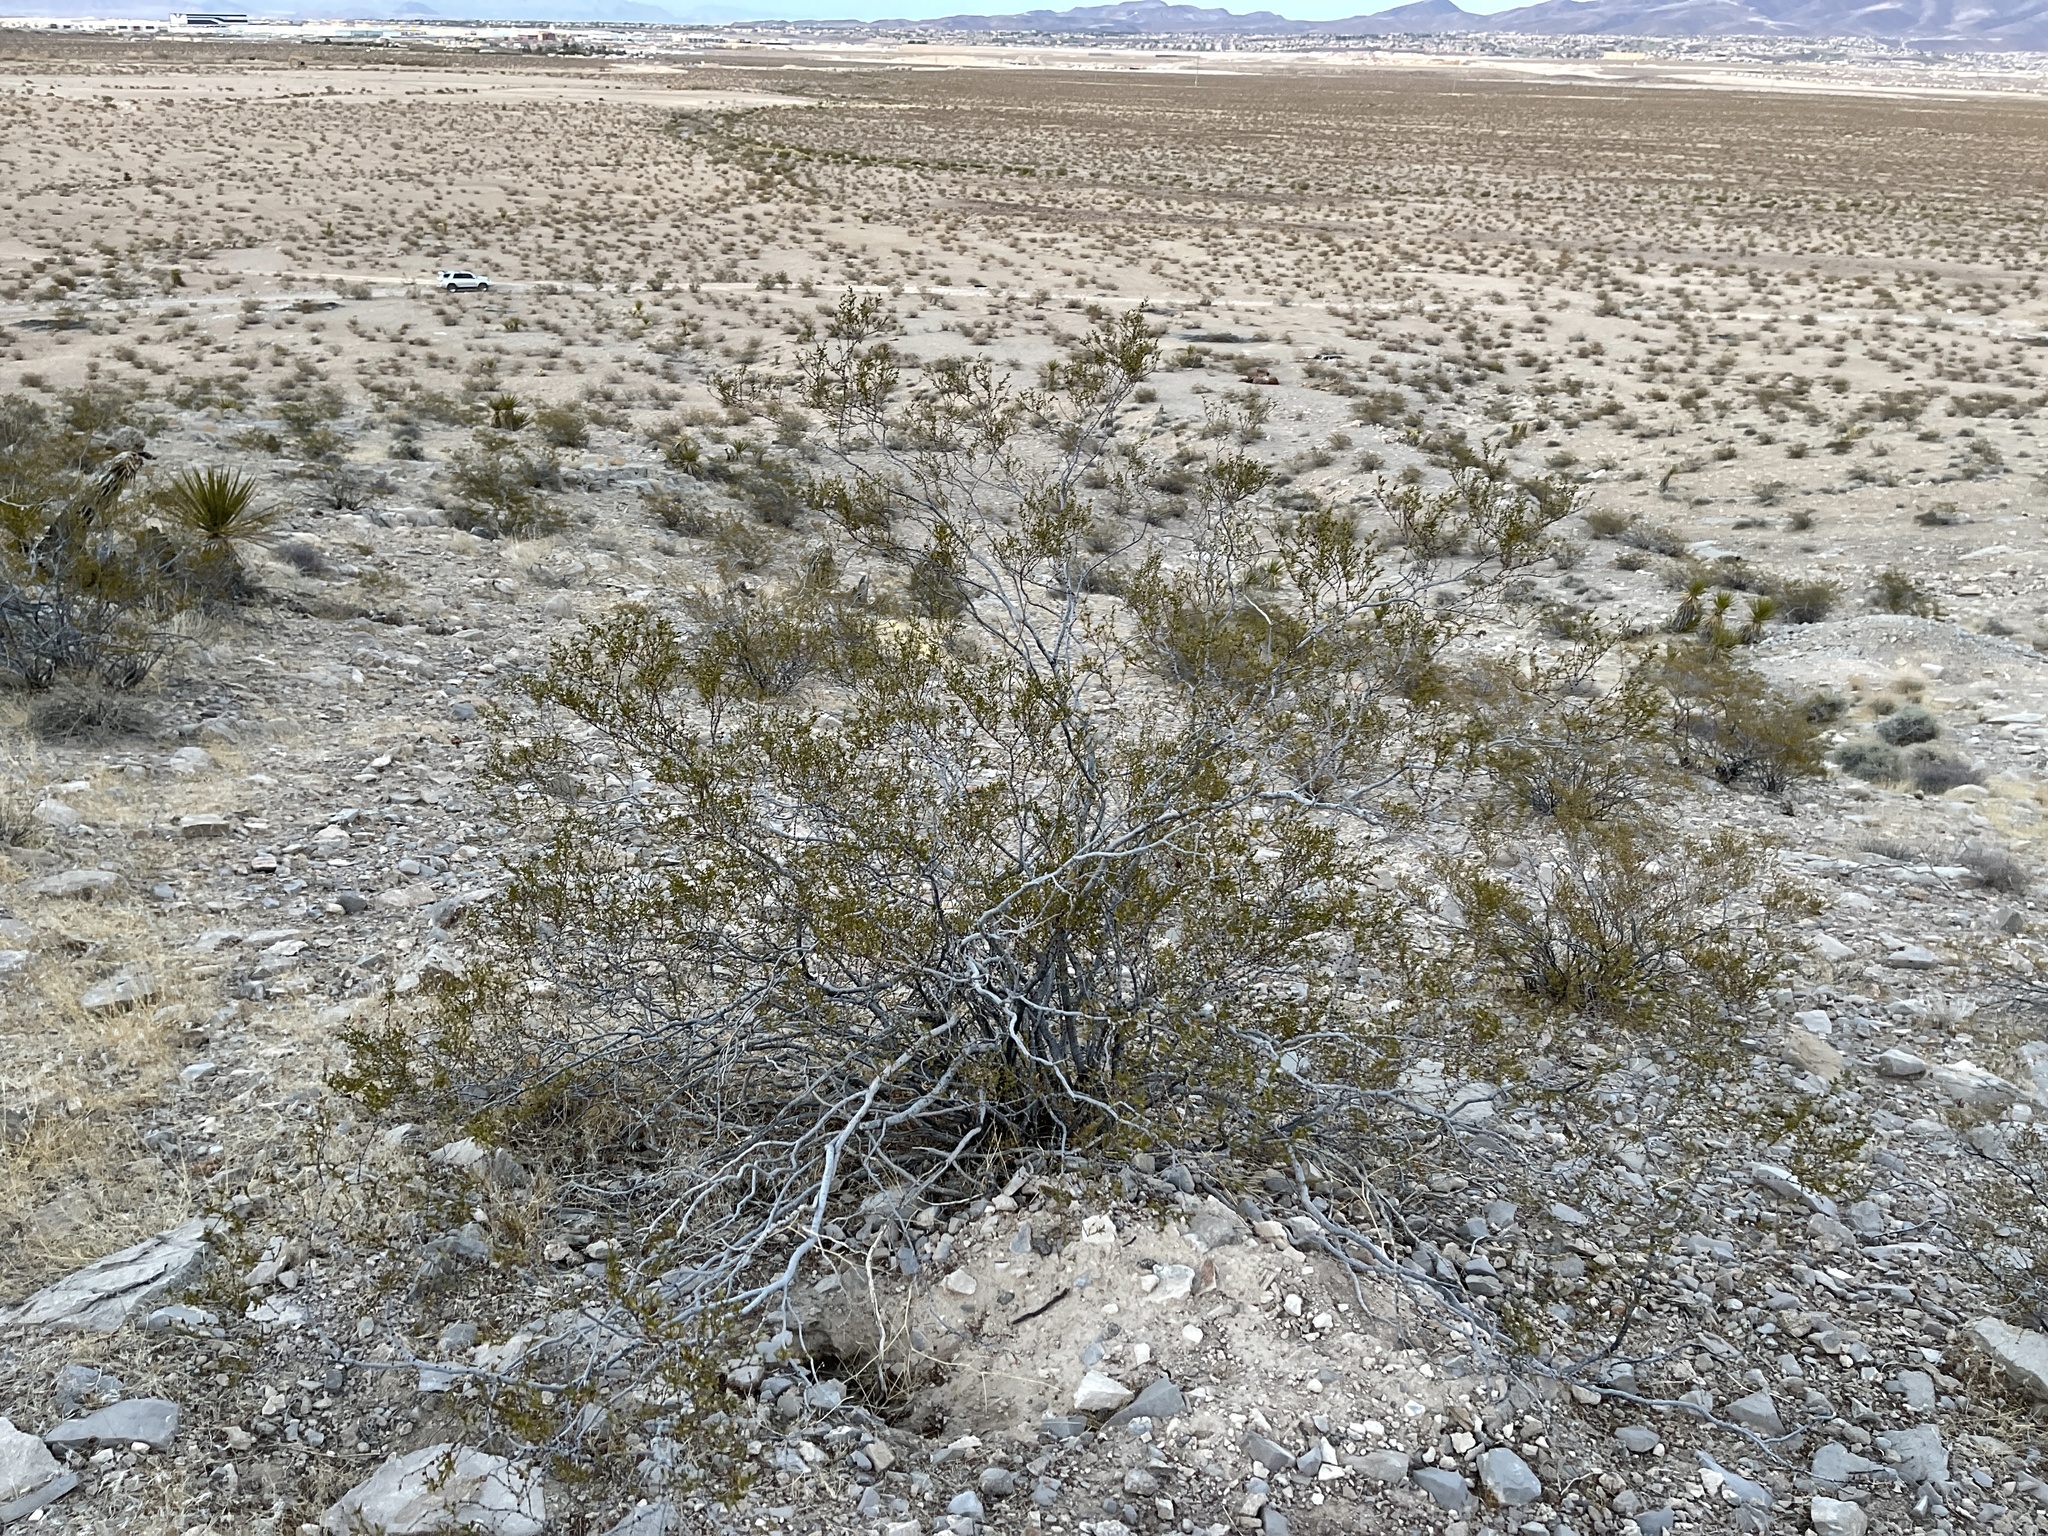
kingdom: Plantae
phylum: Tracheophyta
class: Magnoliopsida
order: Zygophyllales
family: Zygophyllaceae
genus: Larrea
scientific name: Larrea tridentata
